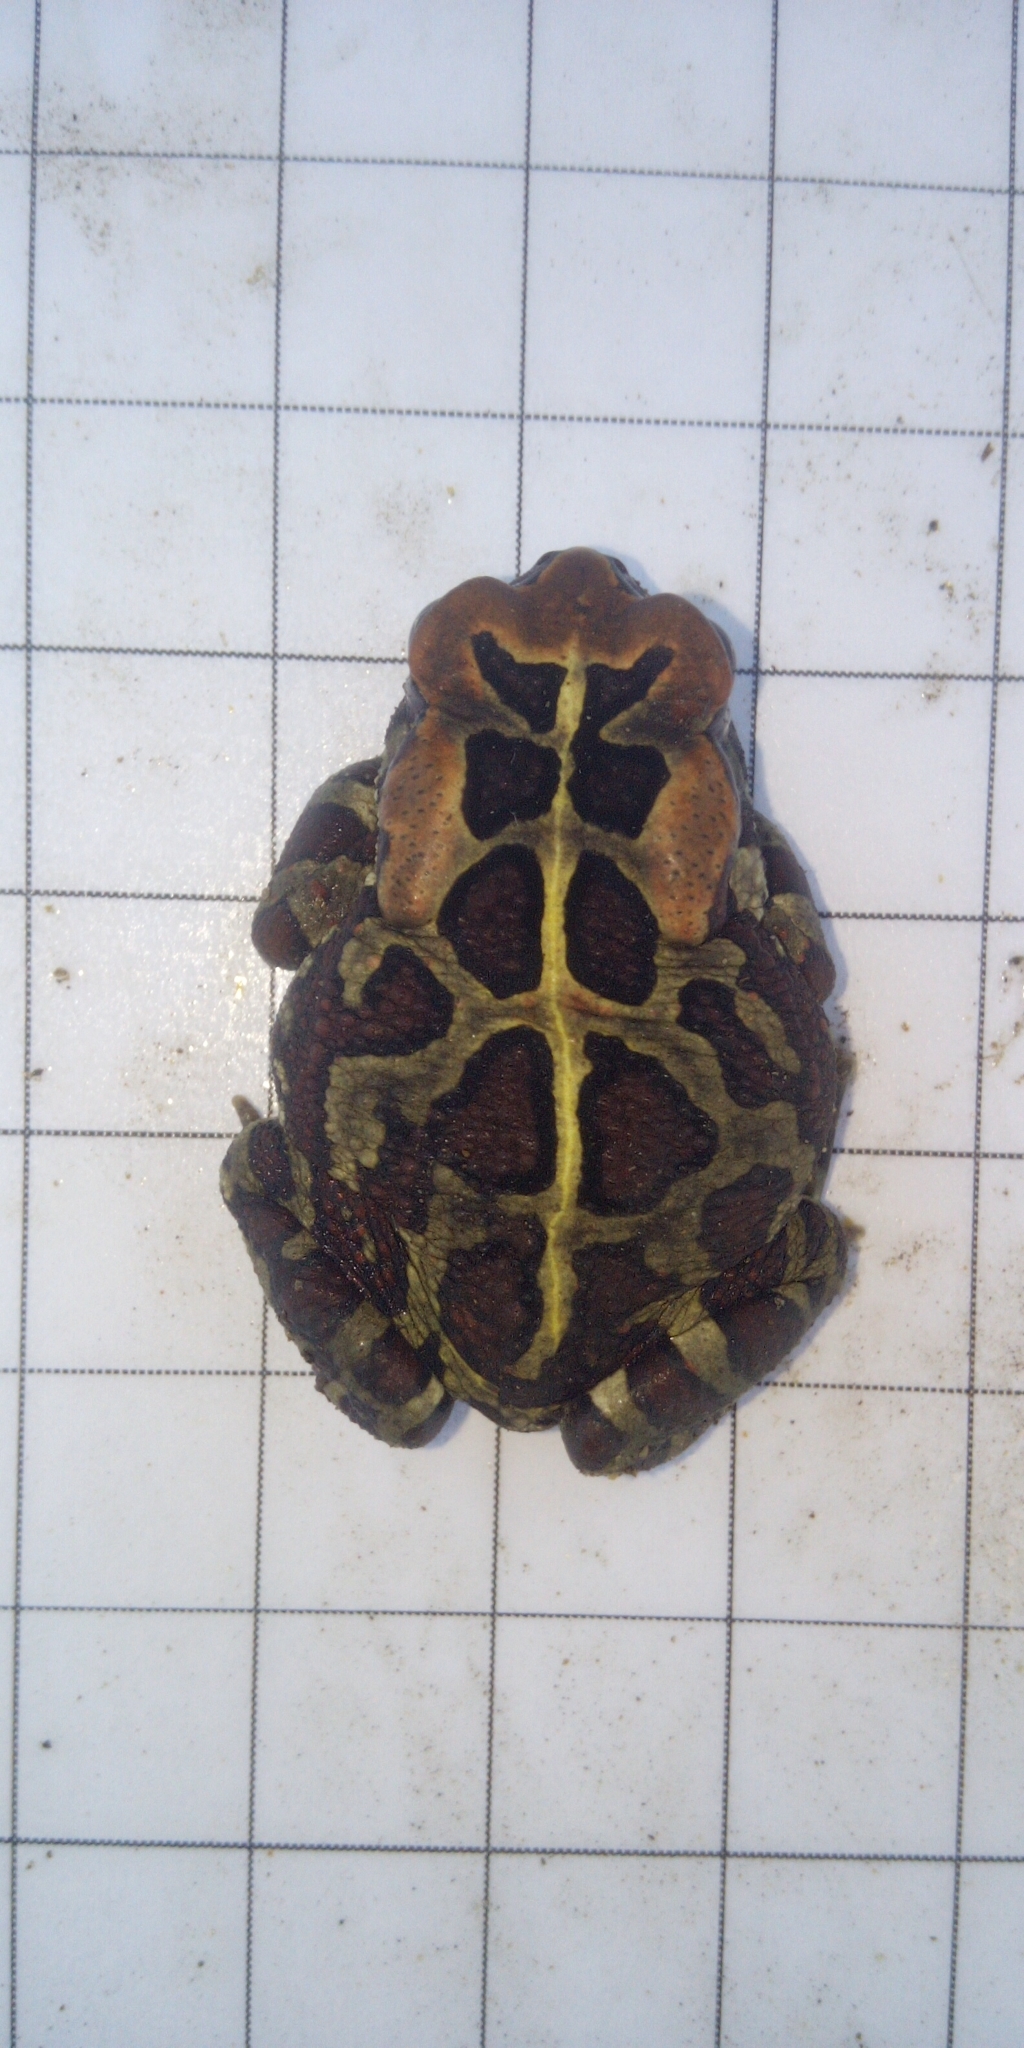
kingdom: Animalia
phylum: Chordata
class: Amphibia
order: Anura
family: Bufonidae
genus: Sclerophrys
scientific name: Sclerophrys pantherina
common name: Panther toad
